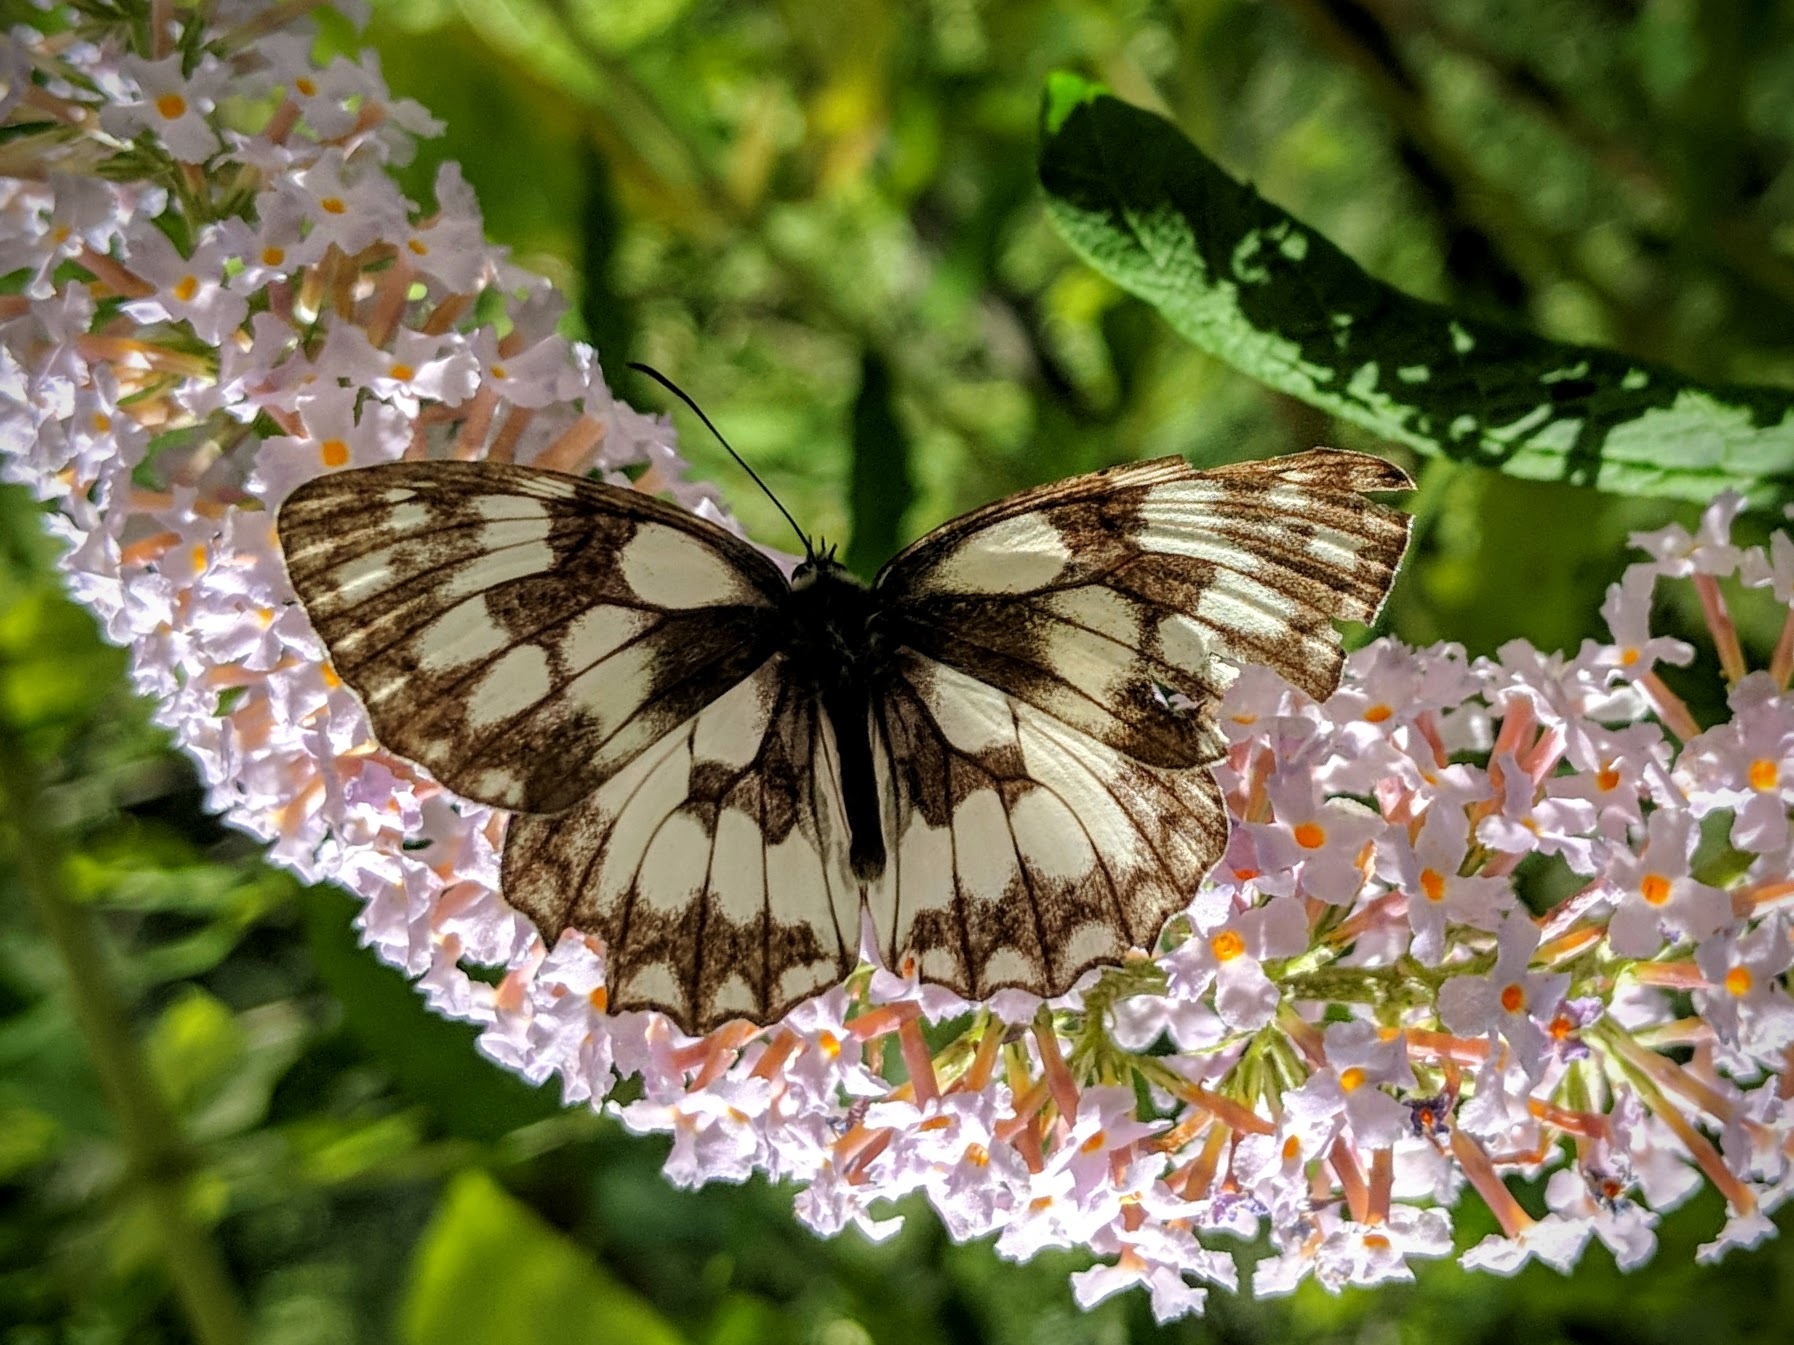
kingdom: Animalia
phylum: Arthropoda
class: Insecta
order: Lepidoptera
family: Nymphalidae
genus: Melanargia
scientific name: Melanargia galathea
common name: Marbled white
